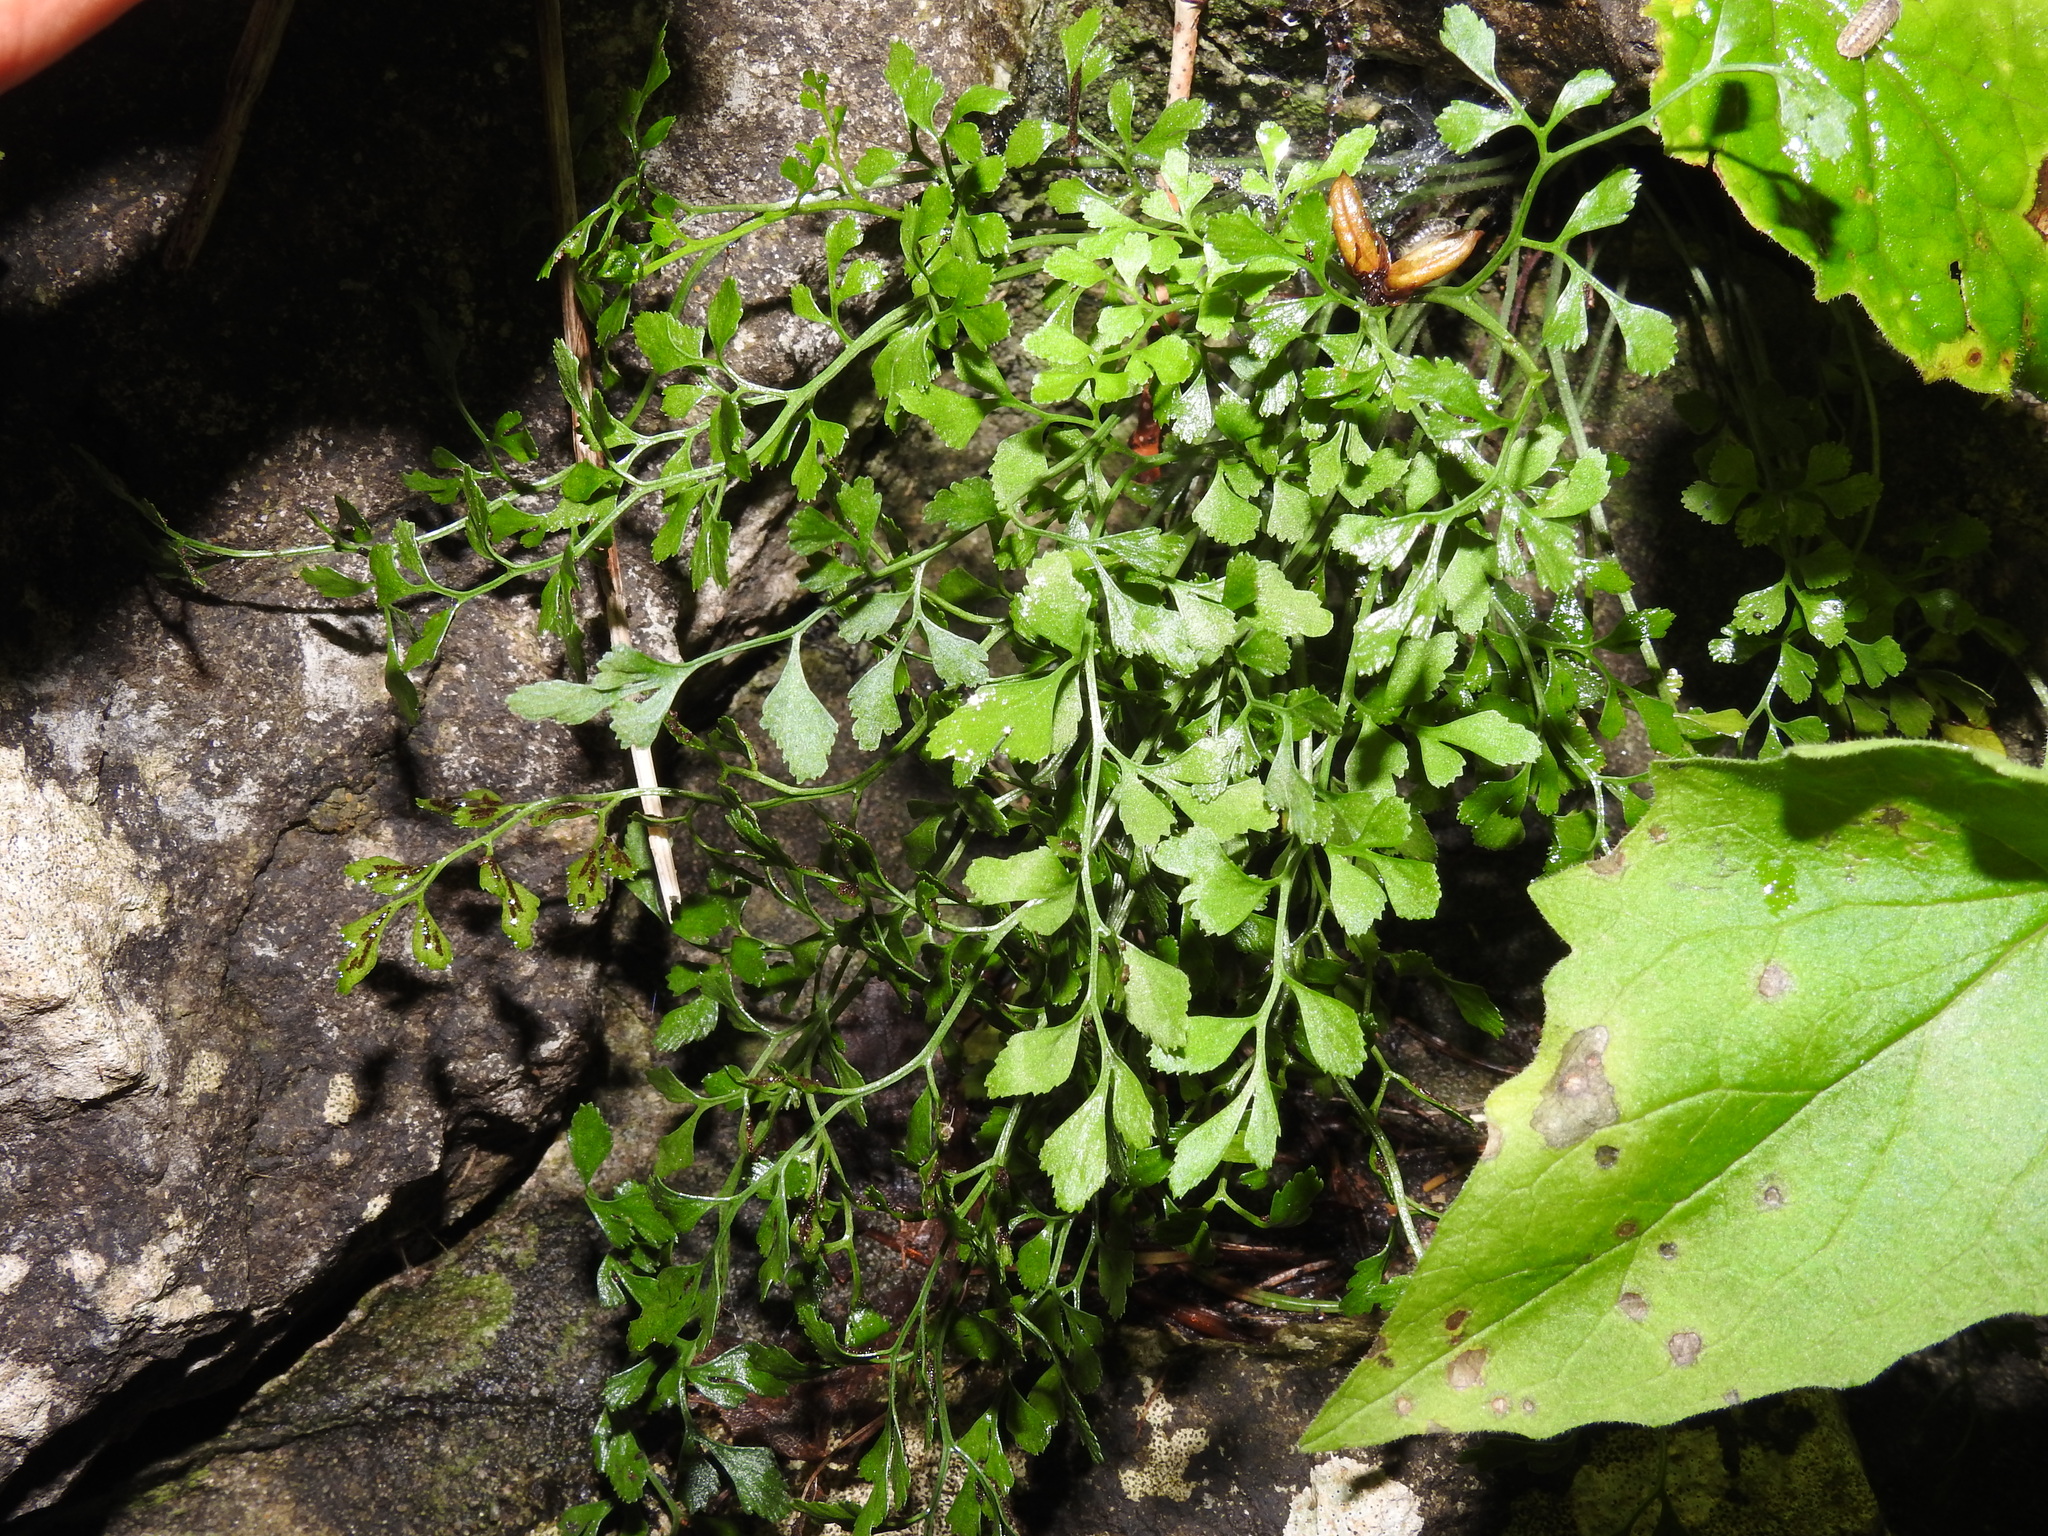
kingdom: Plantae
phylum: Tracheophyta
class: Polypodiopsida
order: Polypodiales
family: Aspleniaceae
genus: Asplenium
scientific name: Asplenium ruta-muraria
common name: Wall-rue
